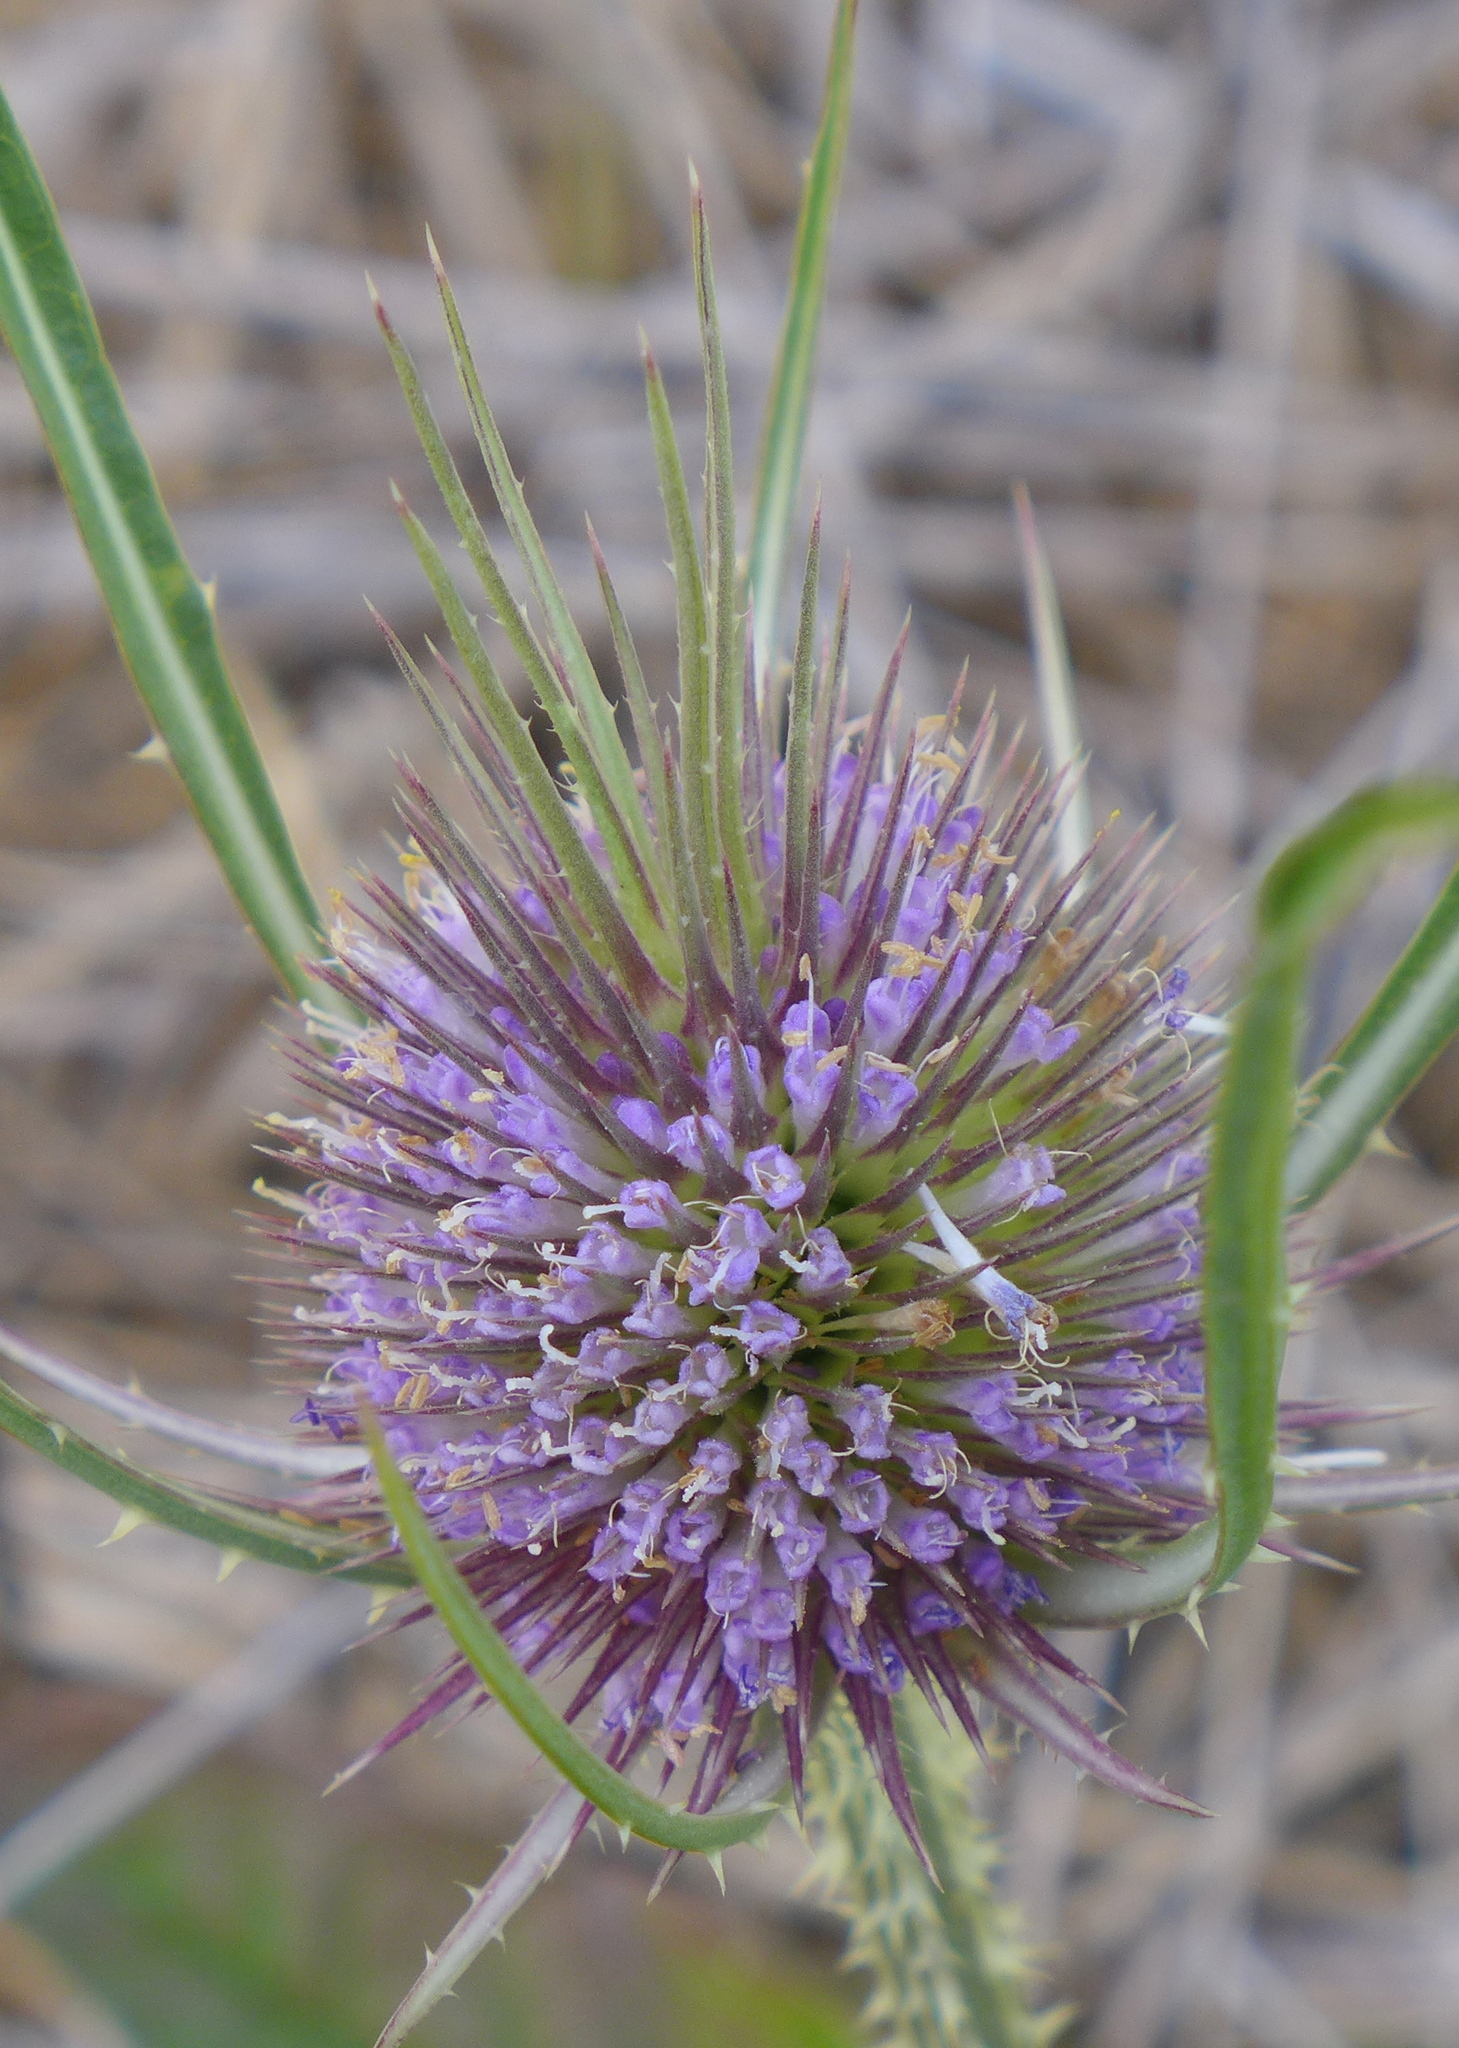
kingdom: Plantae
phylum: Tracheophyta
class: Magnoliopsida
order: Dipsacales
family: Caprifoliaceae
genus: Dipsacus
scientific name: Dipsacus fullonum
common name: Teasel
